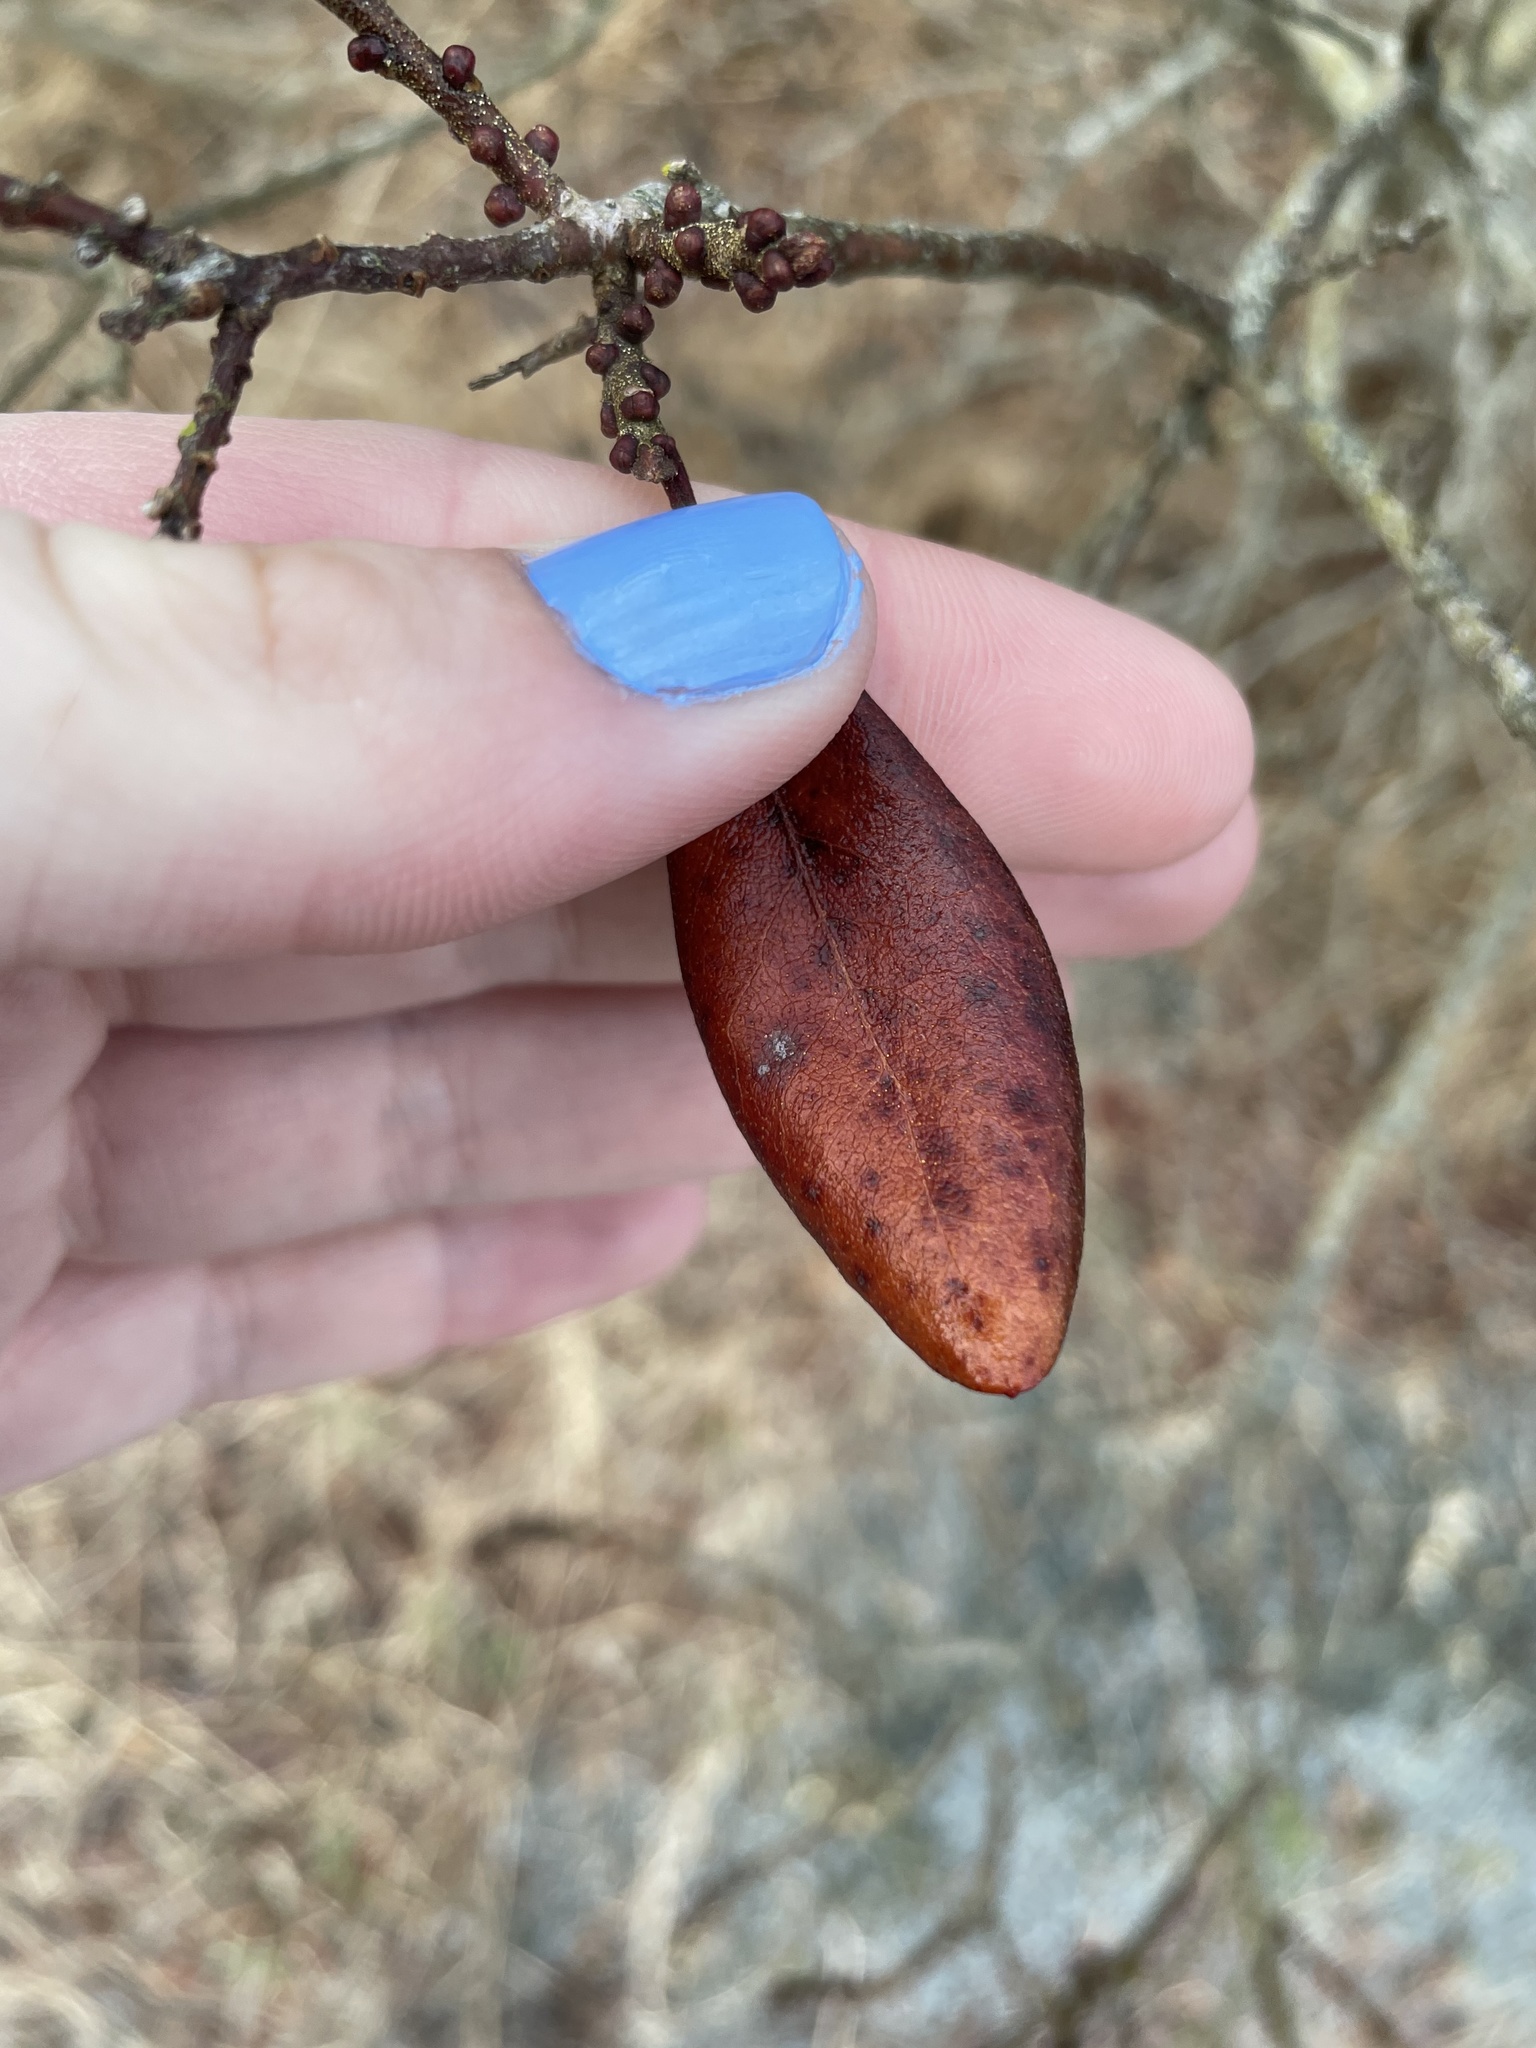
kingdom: Plantae
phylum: Tracheophyta
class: Magnoliopsida
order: Fagales
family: Myricaceae
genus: Morella
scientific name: Morella pensylvanica
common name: Northern bayberry
